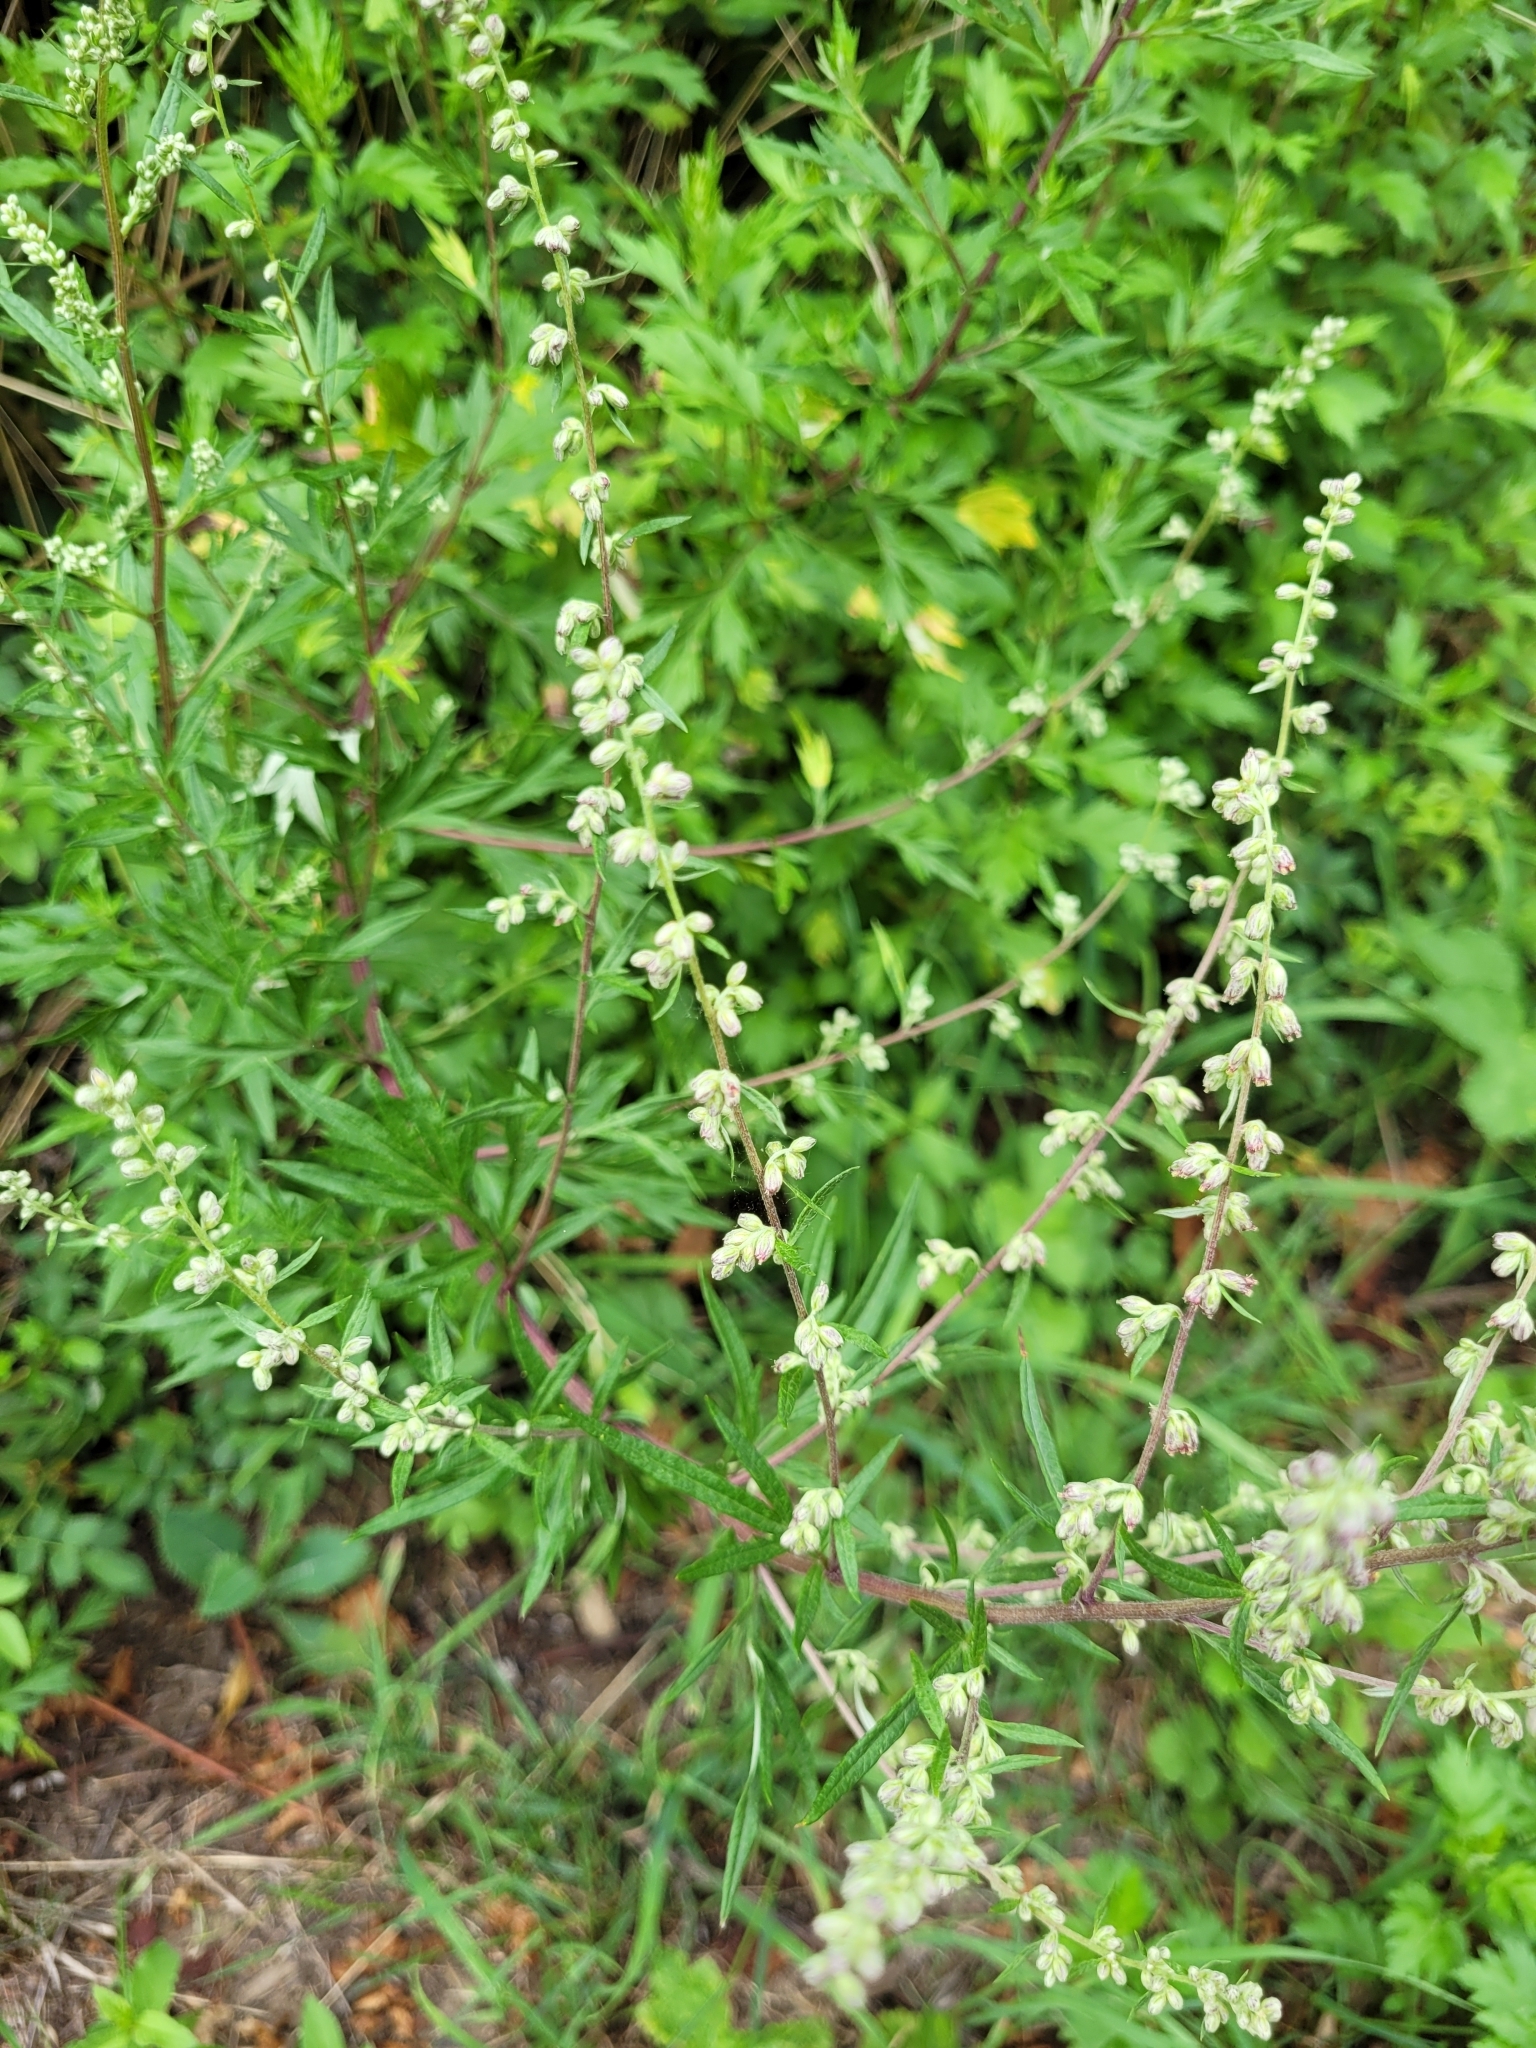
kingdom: Plantae
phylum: Tracheophyta
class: Magnoliopsida
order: Asterales
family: Asteraceae
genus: Artemisia
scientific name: Artemisia vulgaris
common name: Mugwort
